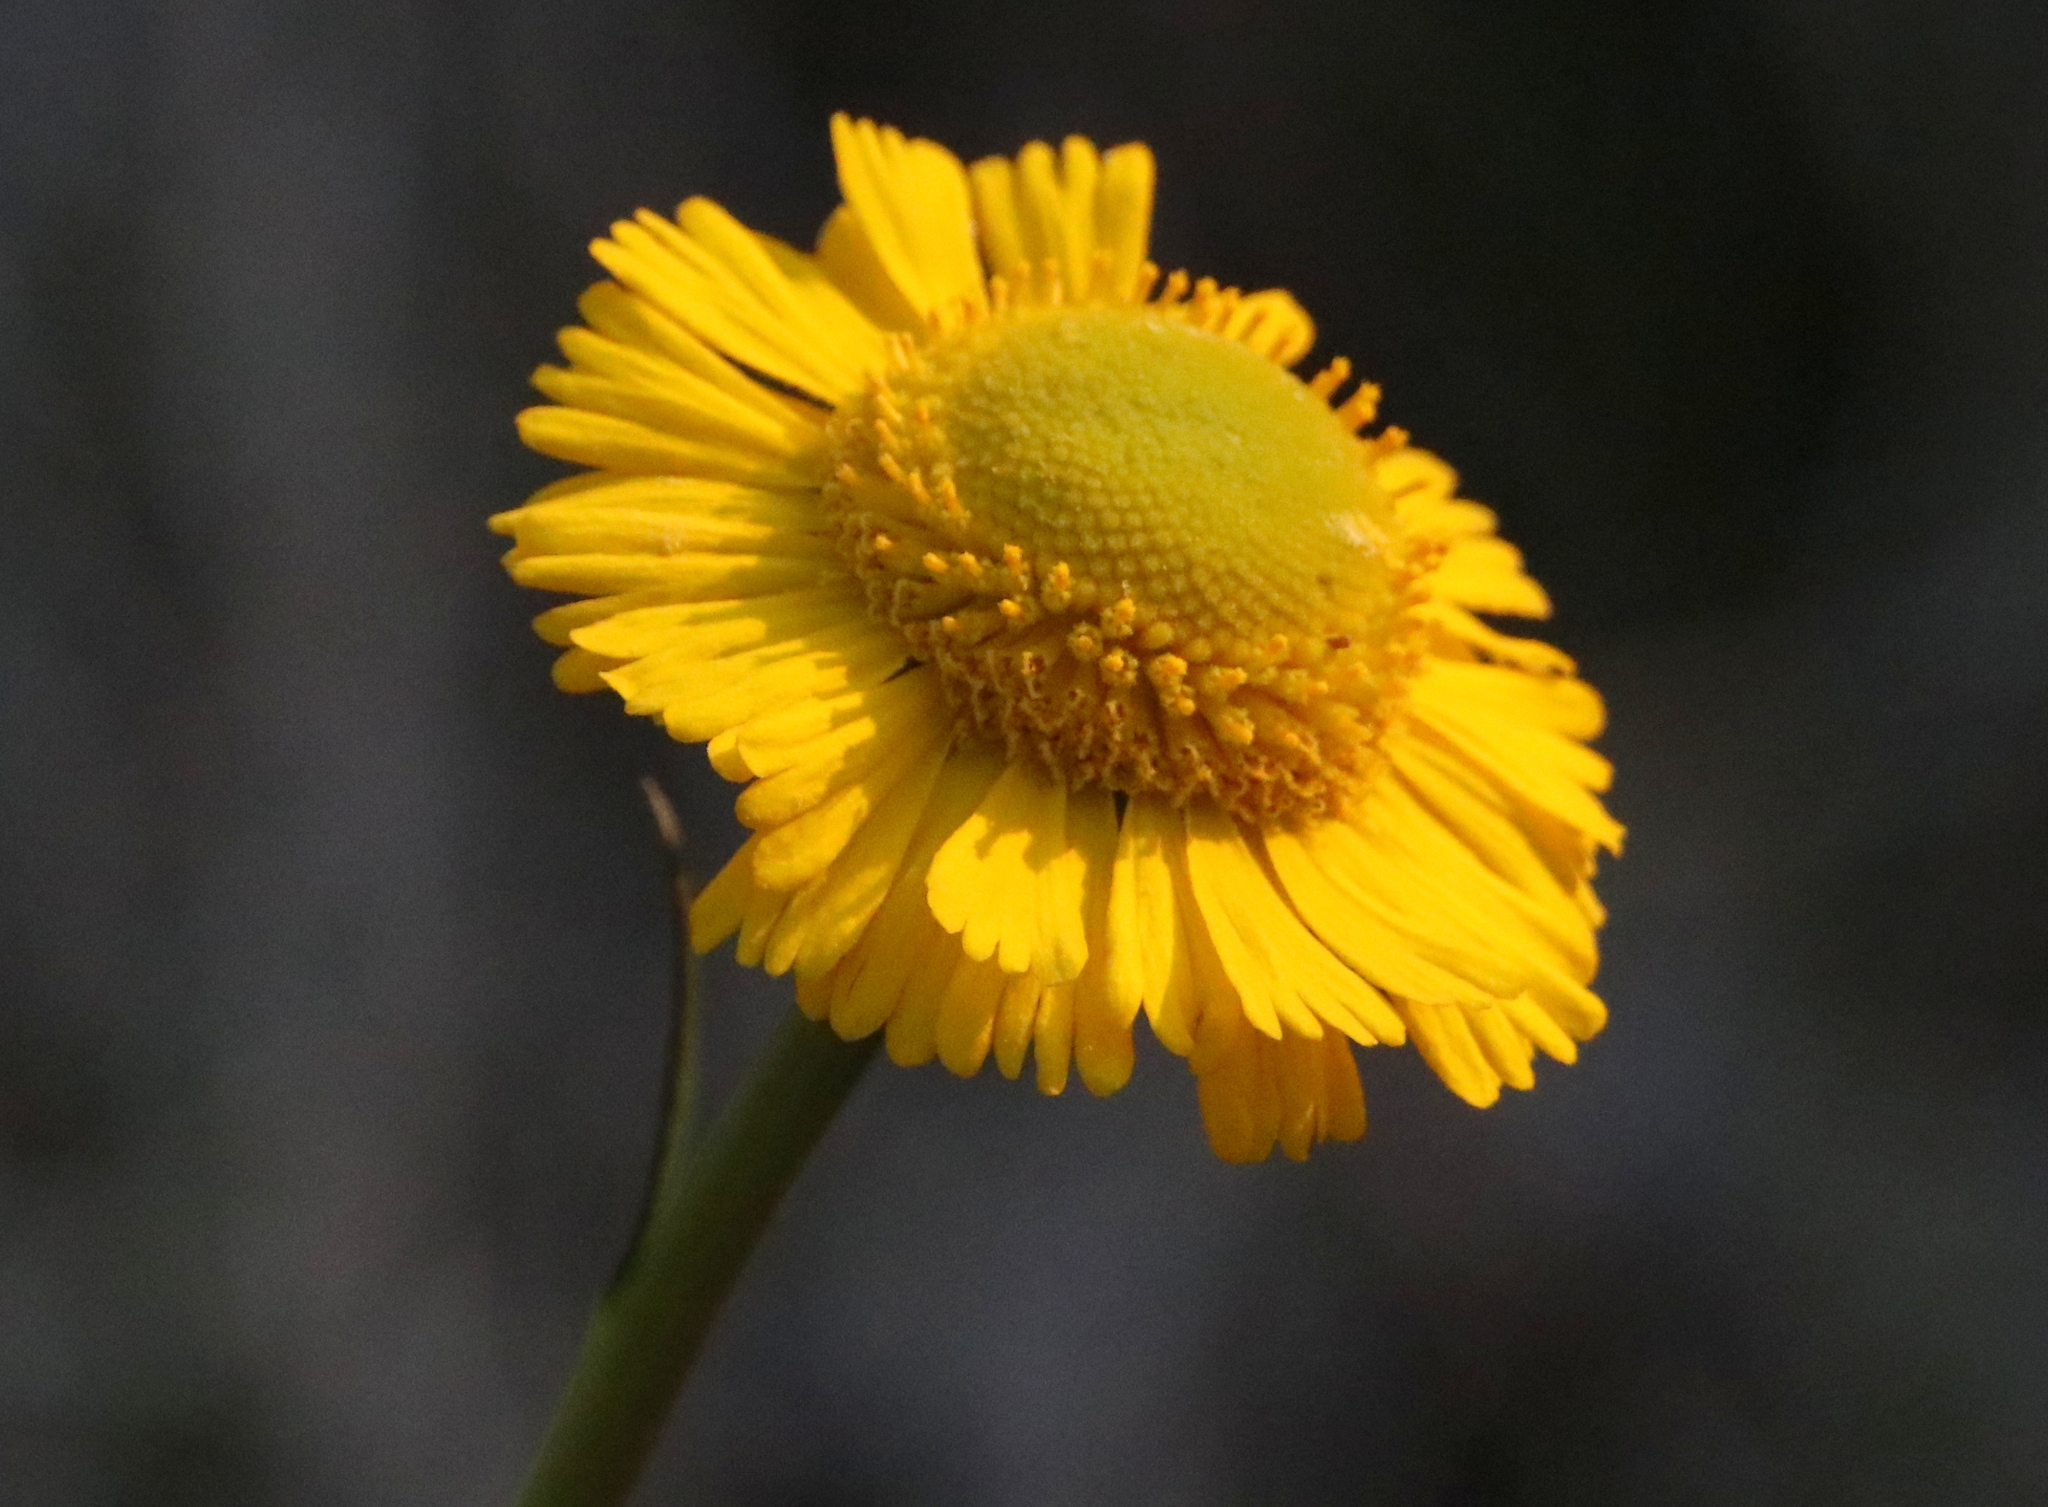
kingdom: Plantae
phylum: Tracheophyta
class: Magnoliopsida
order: Asterales
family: Asteraceae
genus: Helenium
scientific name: Helenium vernale
